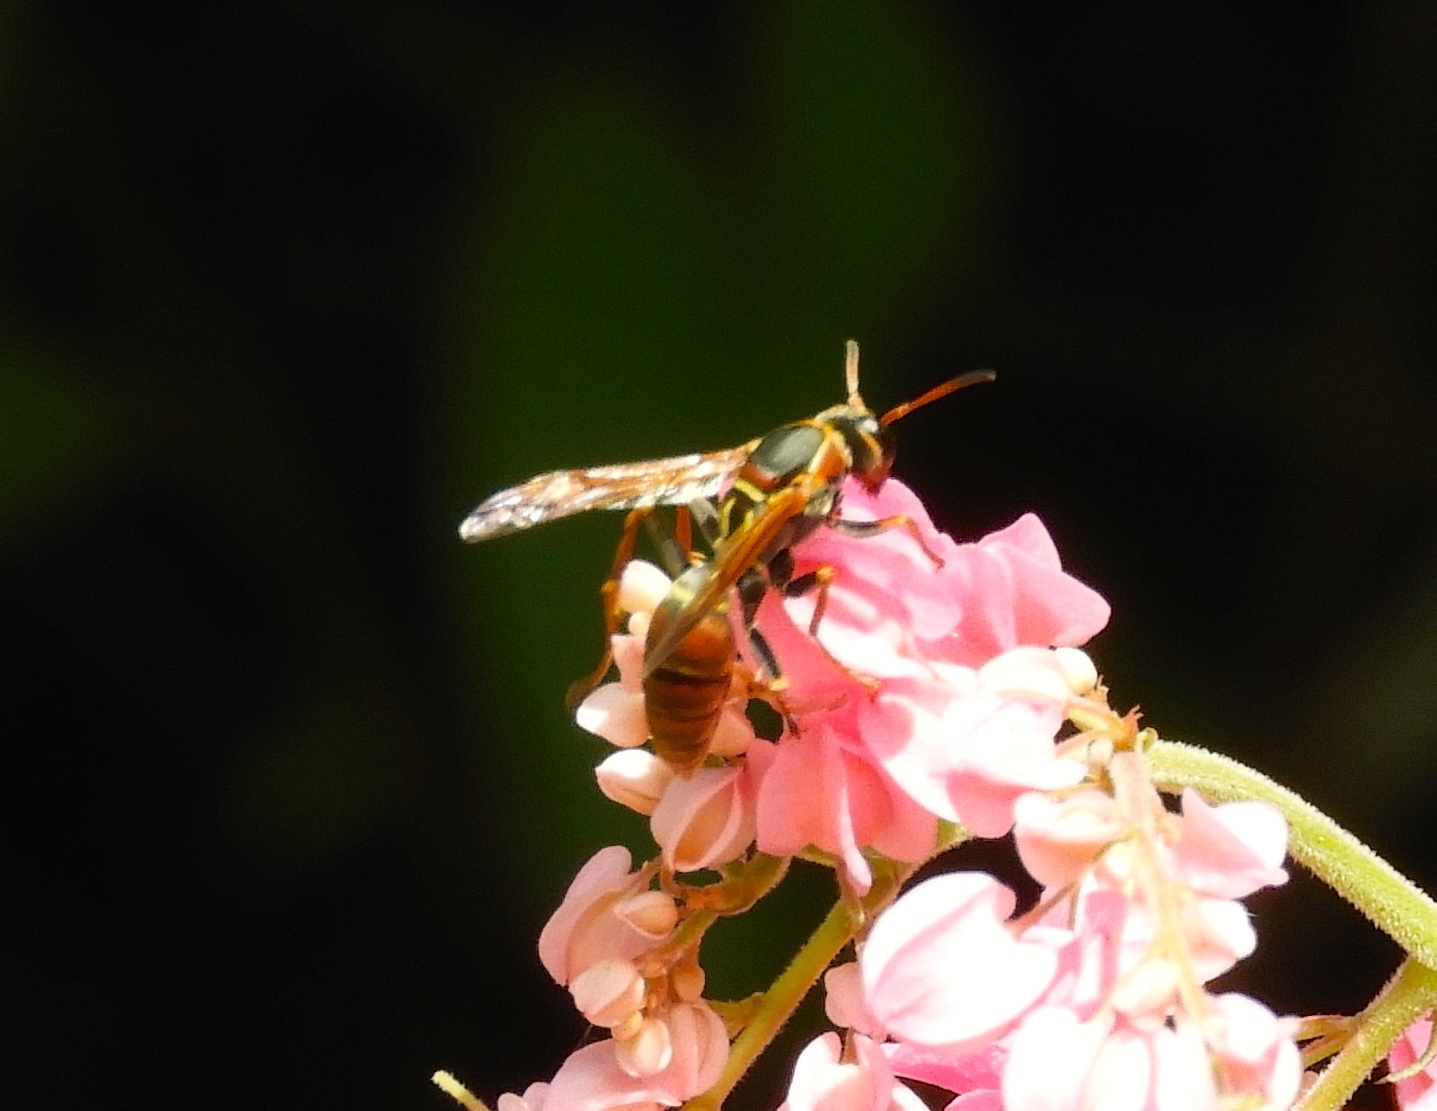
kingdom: Animalia
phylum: Arthropoda
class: Insecta
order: Hymenoptera
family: Eumenidae
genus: Polistes
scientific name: Polistes pacificus
